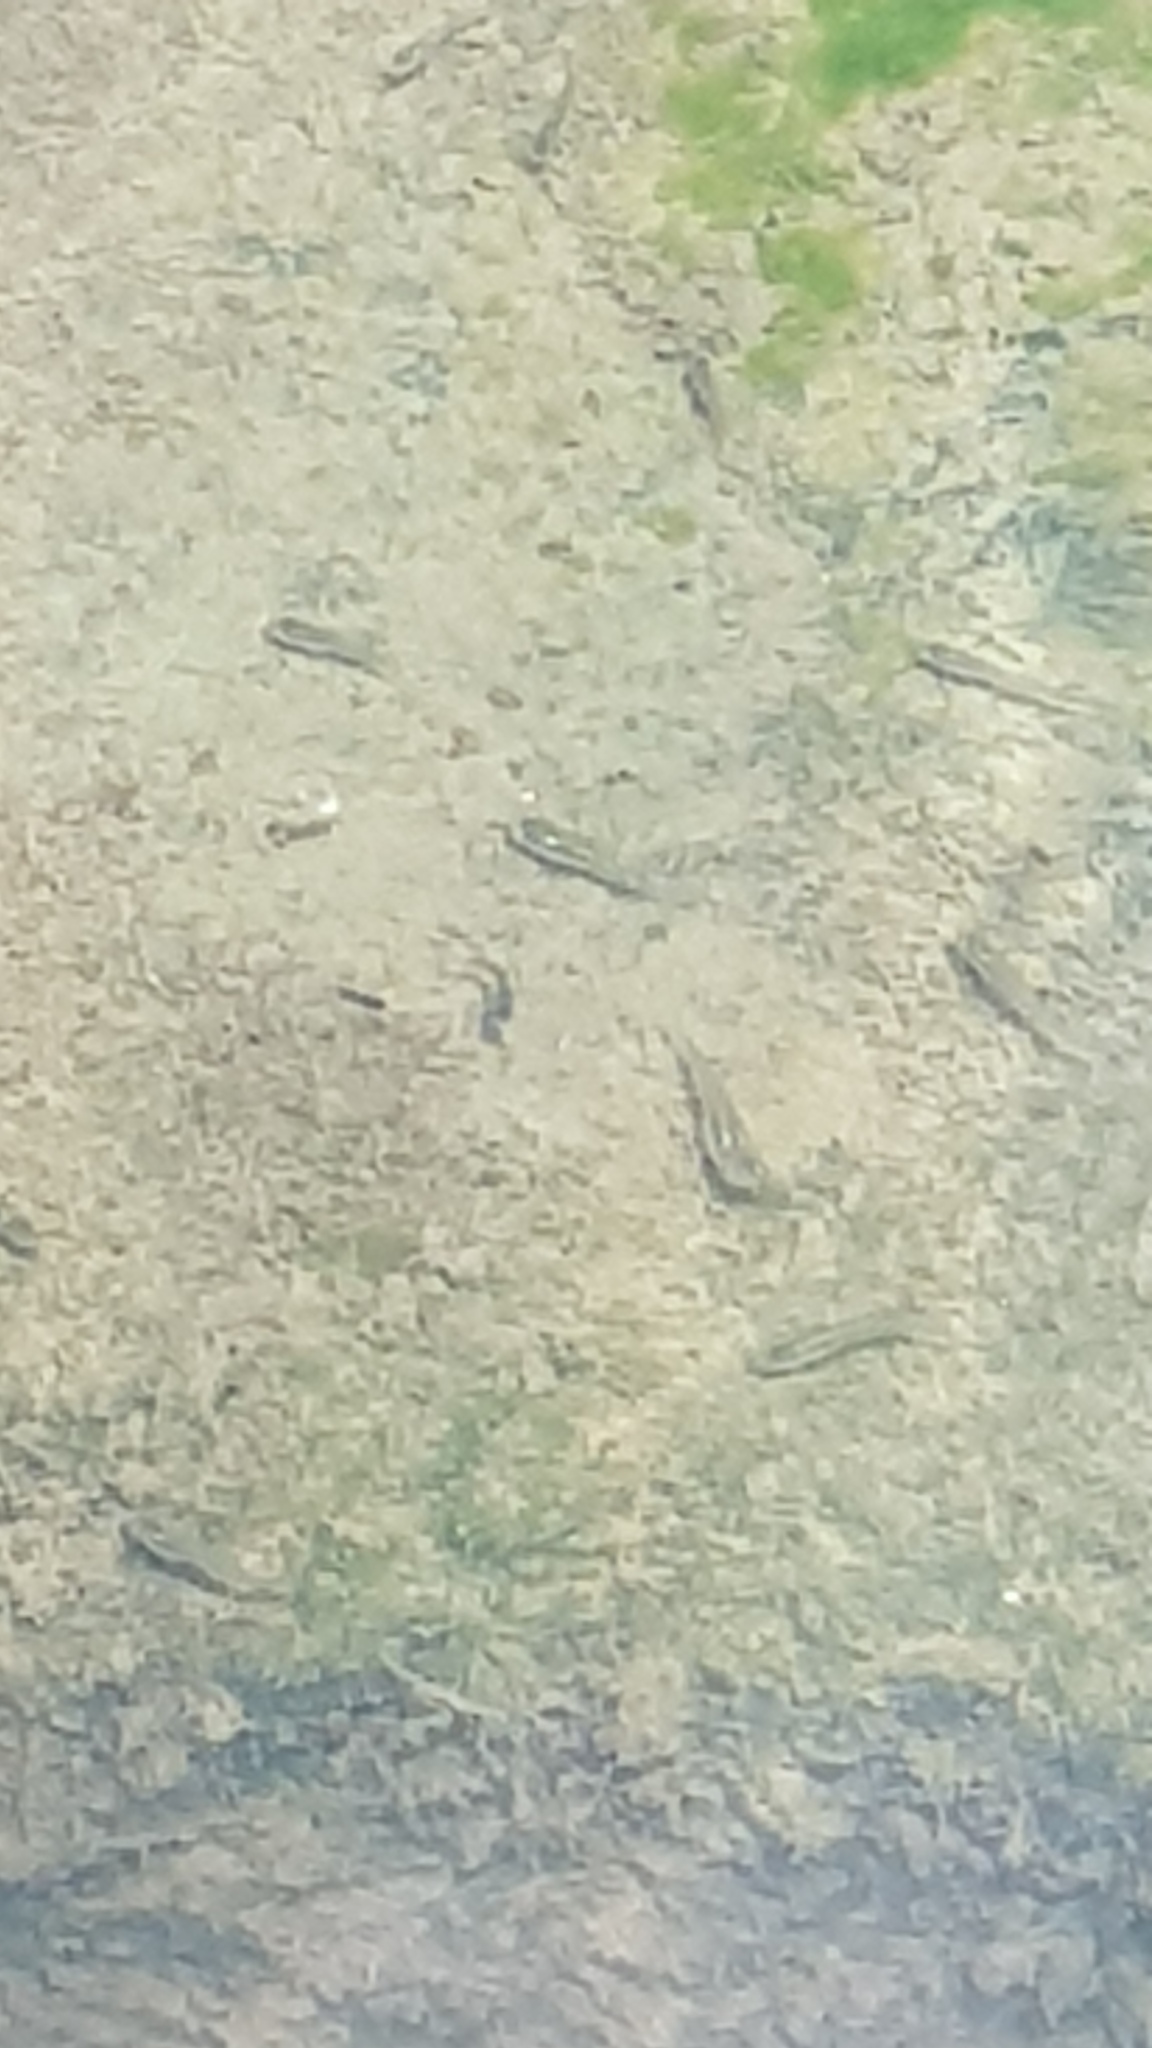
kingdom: Animalia
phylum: Chordata
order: Cyprinodontiformes
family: Poeciliidae
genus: Gambusia
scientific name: Gambusia holbrooki
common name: Eastern mosquitofish
